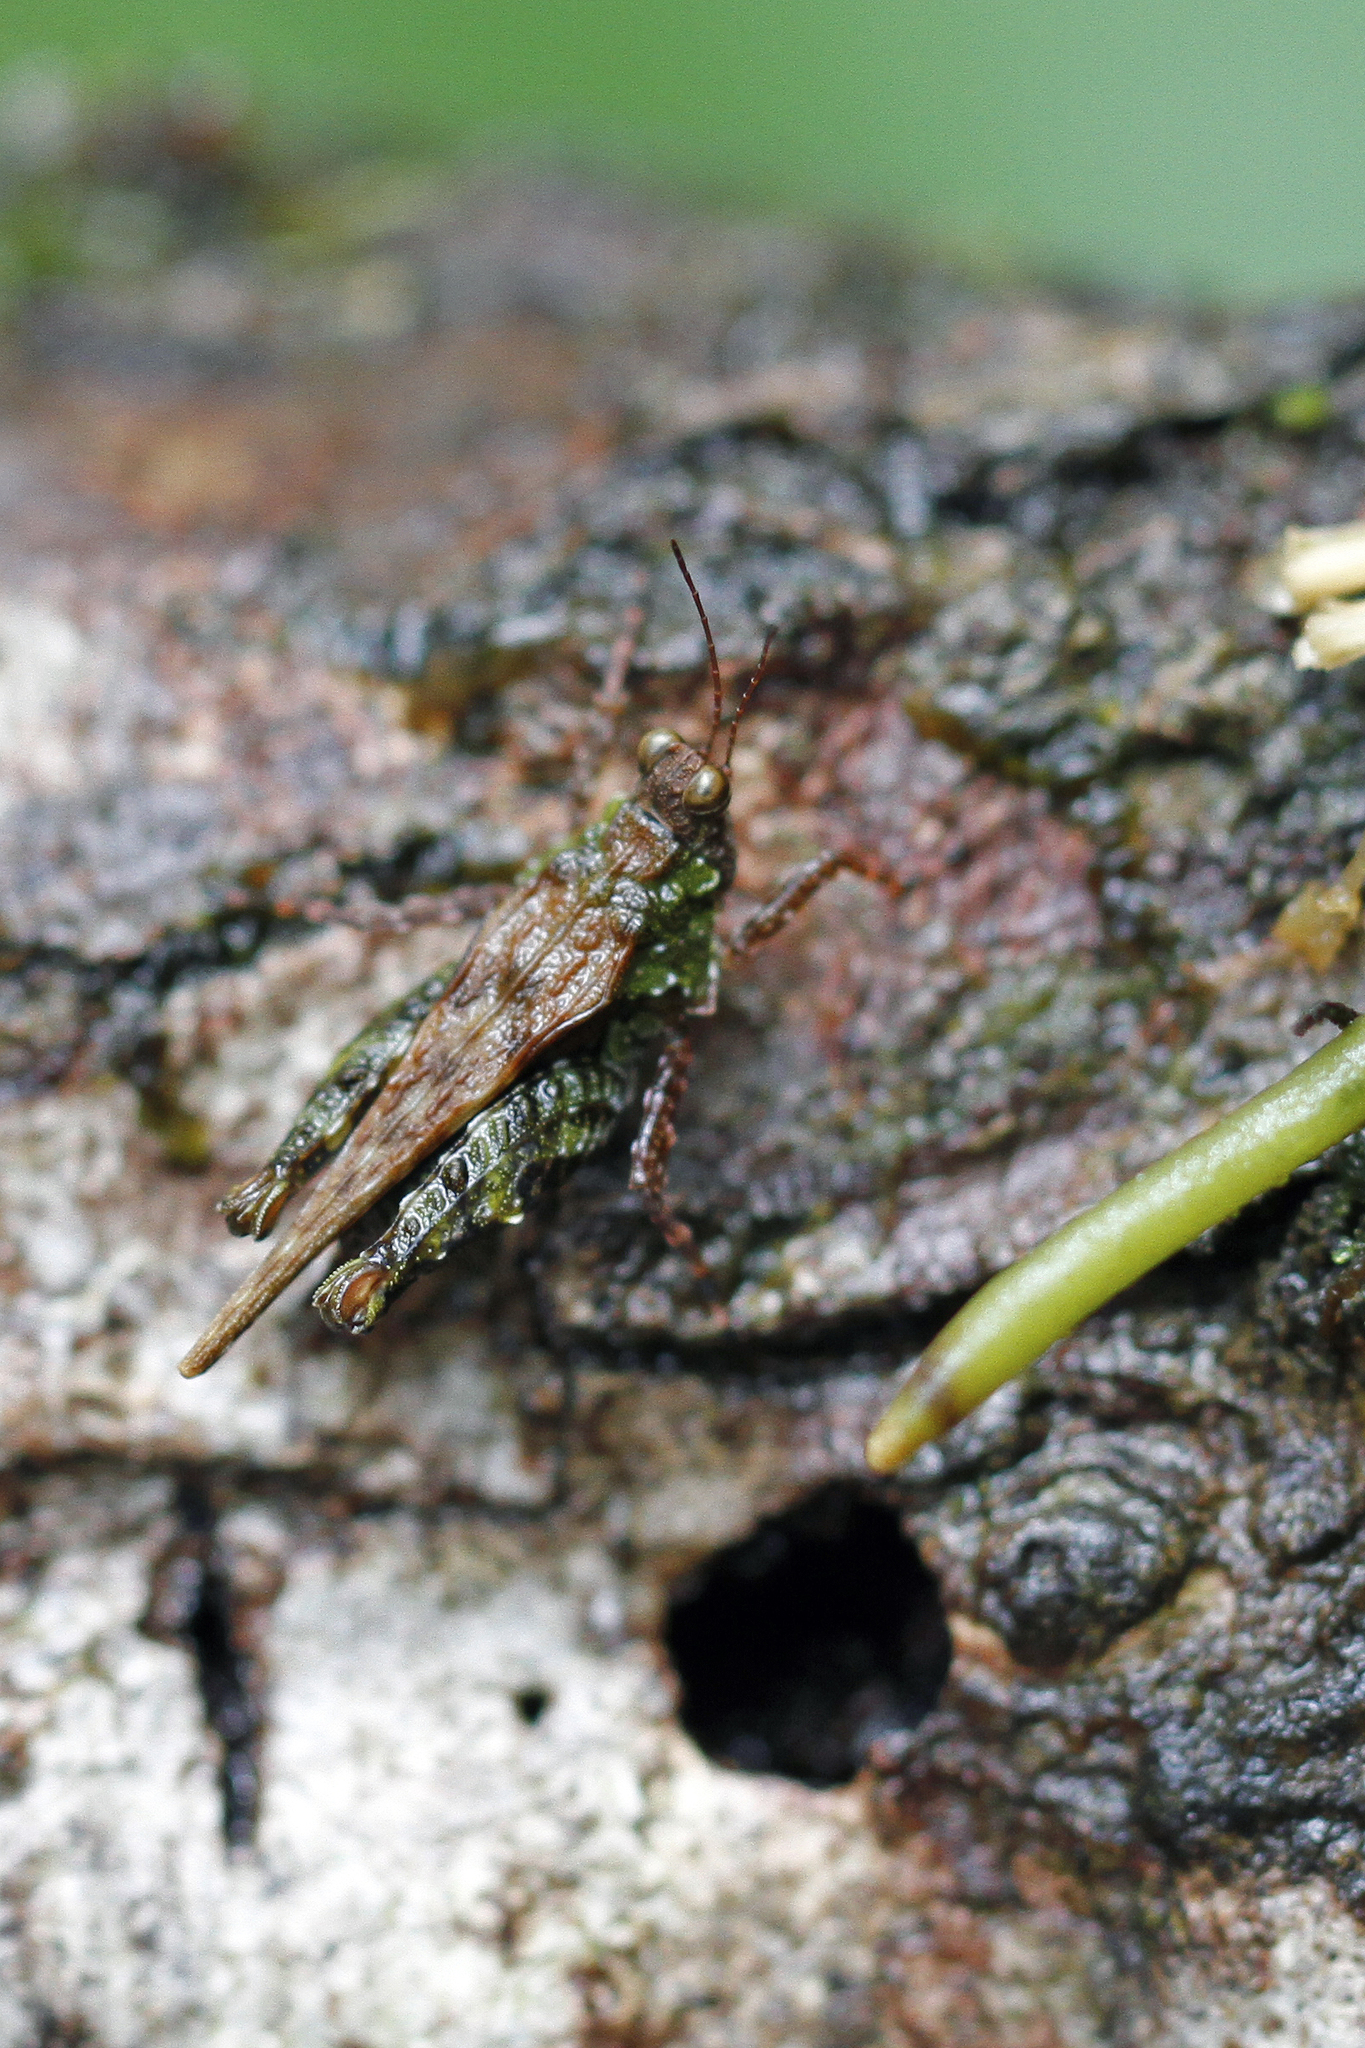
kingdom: Animalia
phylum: Arthropoda
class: Insecta
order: Orthoptera
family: Tetrigidae
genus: Crimisus
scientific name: Crimisus costaricensis
